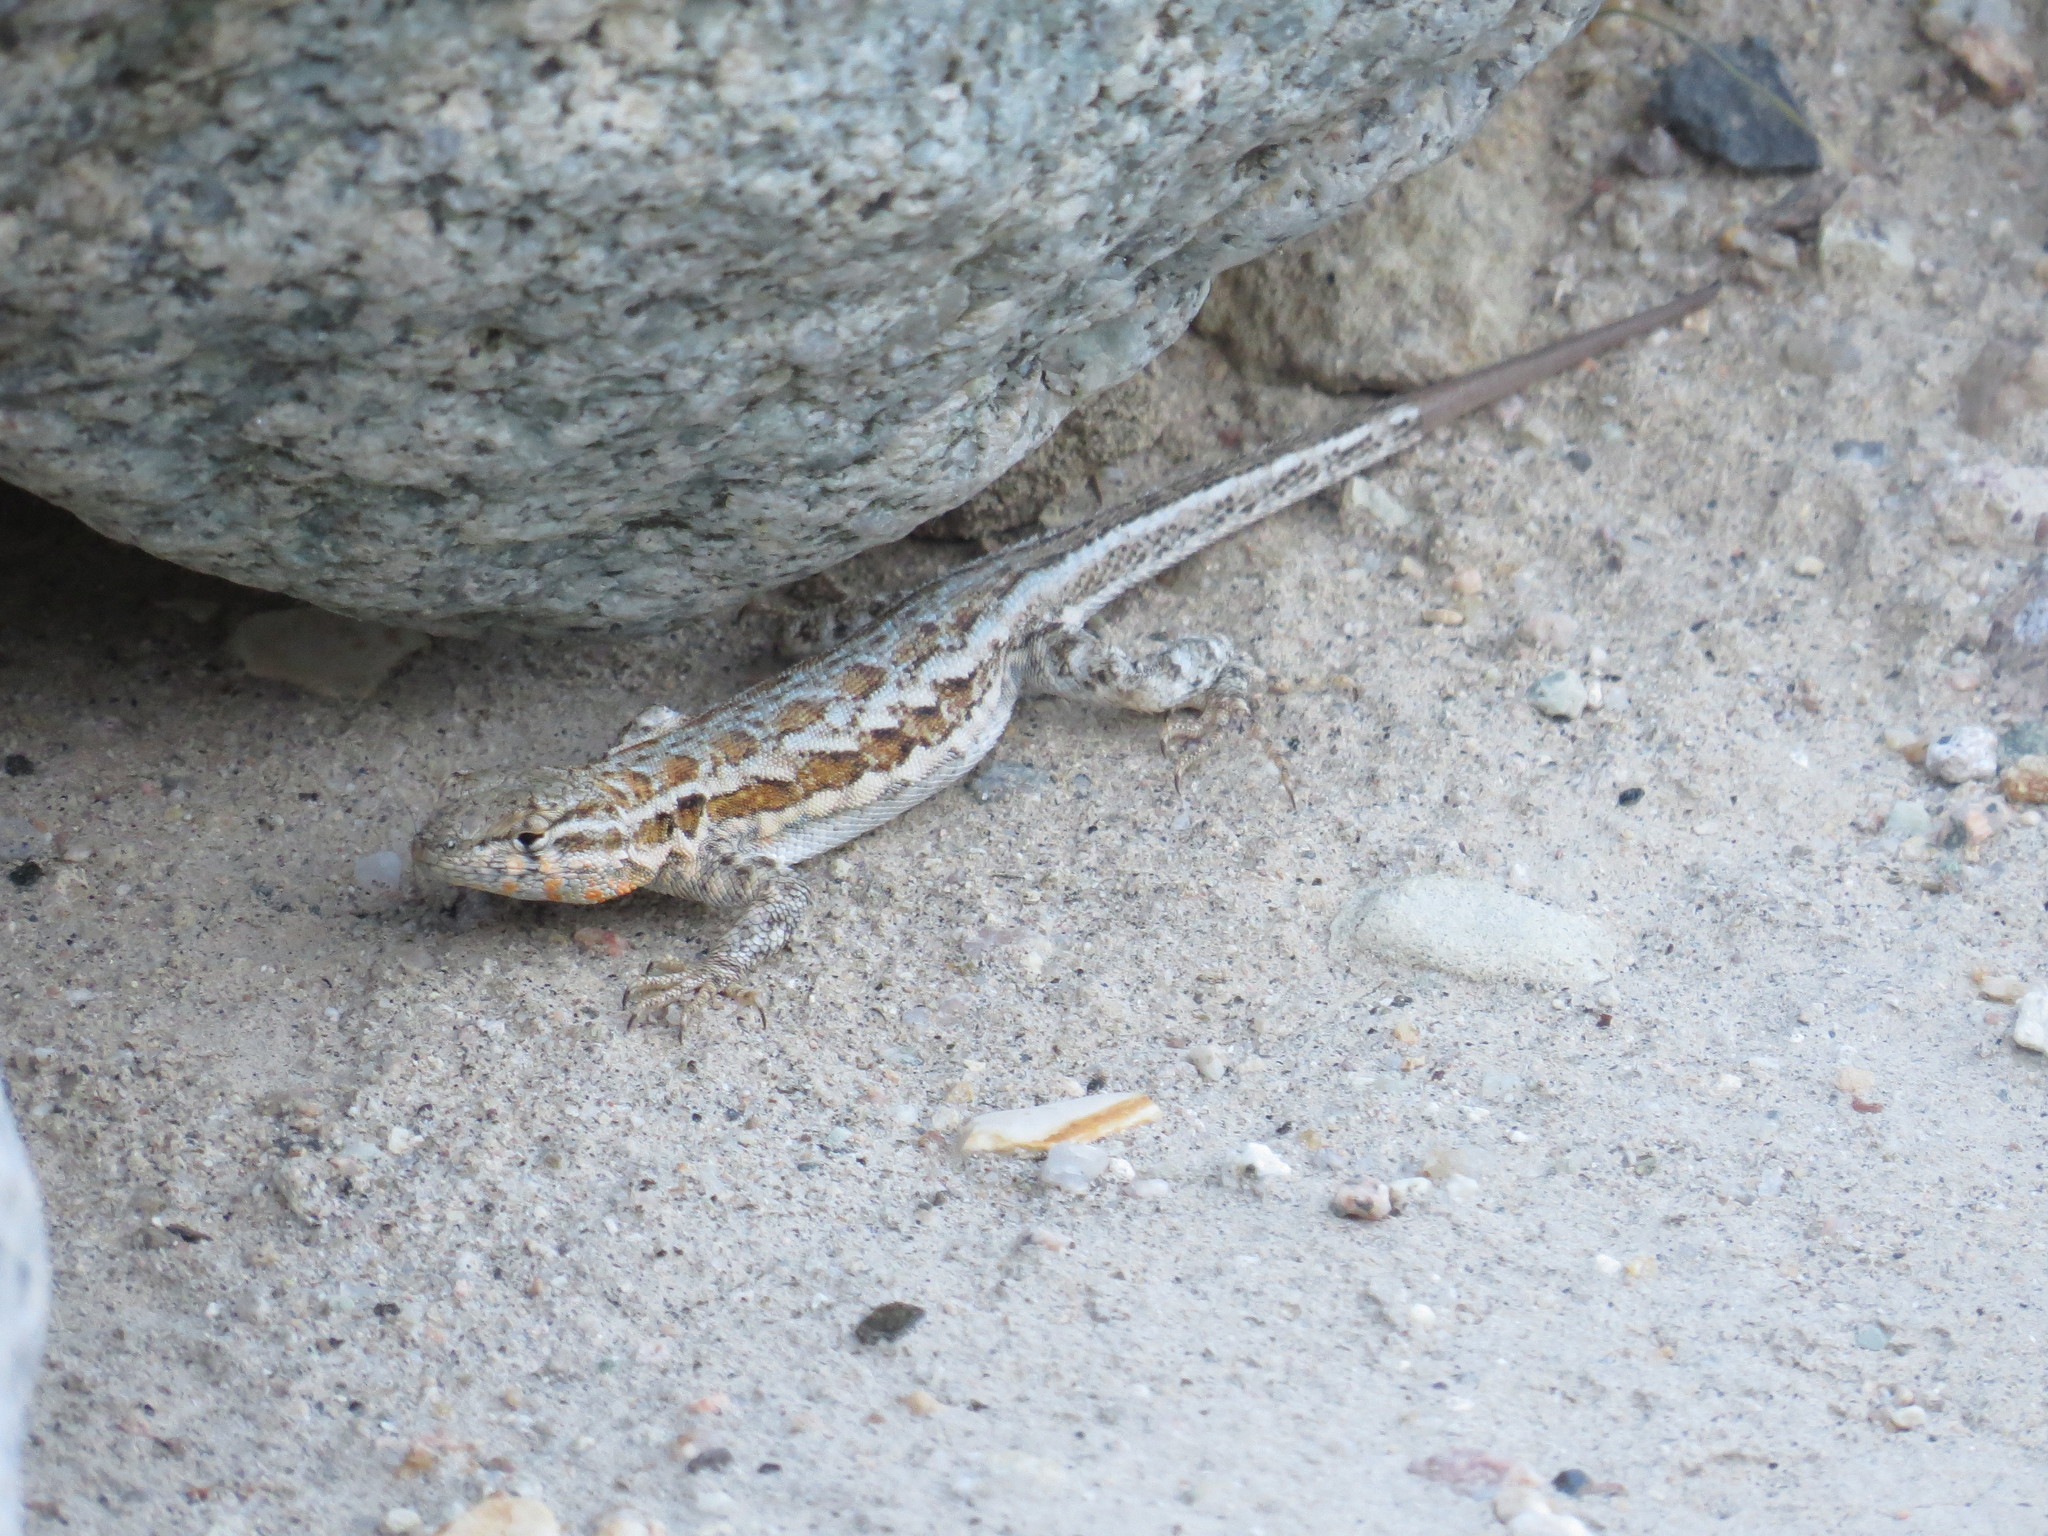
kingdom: Animalia
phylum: Chordata
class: Squamata
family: Phrynosomatidae
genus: Uta
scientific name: Uta stansburiana
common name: Side-blotched lizard
